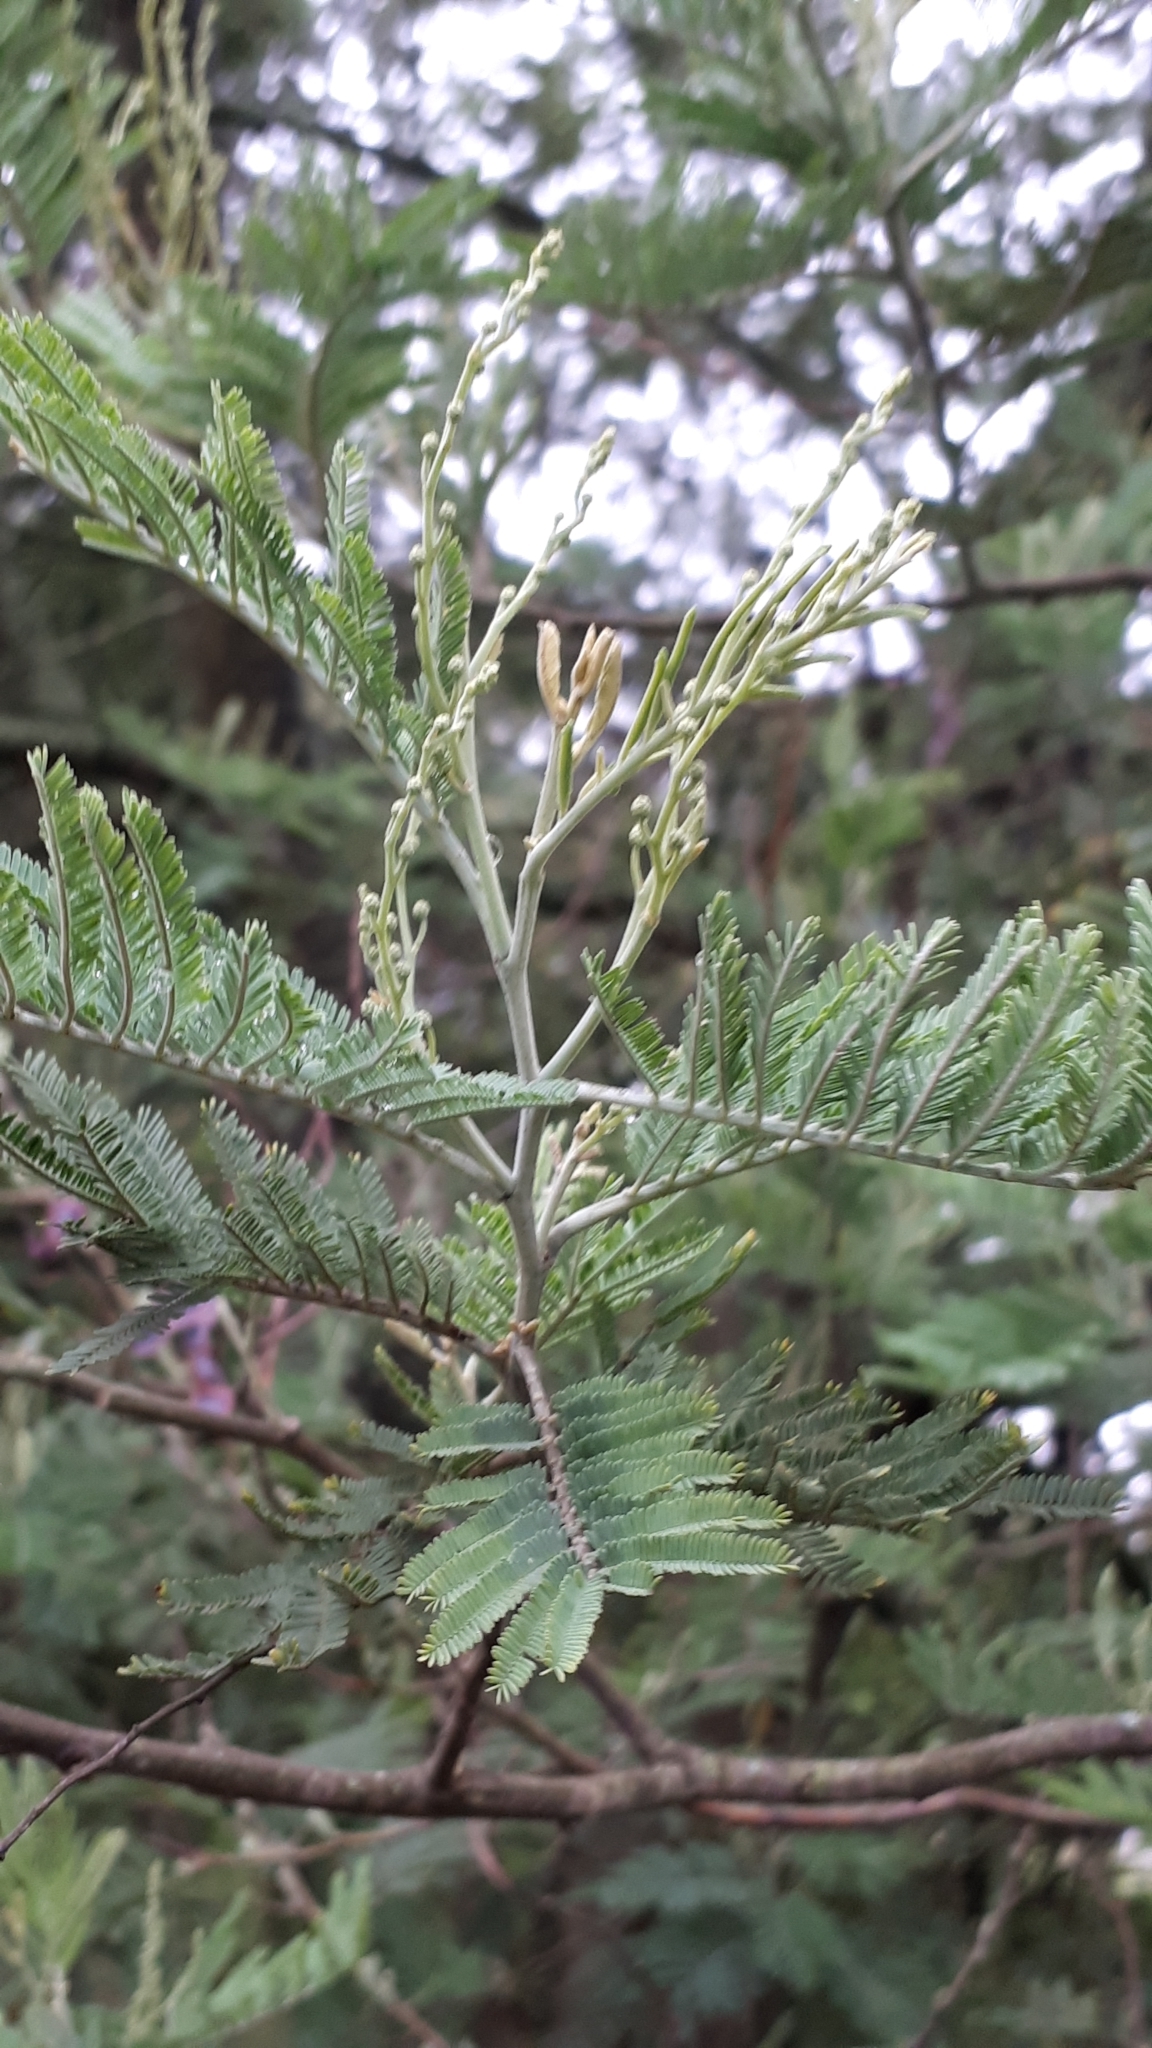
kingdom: Plantae
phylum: Tracheophyta
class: Magnoliopsida
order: Fabales
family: Fabaceae
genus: Acacia
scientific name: Acacia dealbata
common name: Silver wattle
